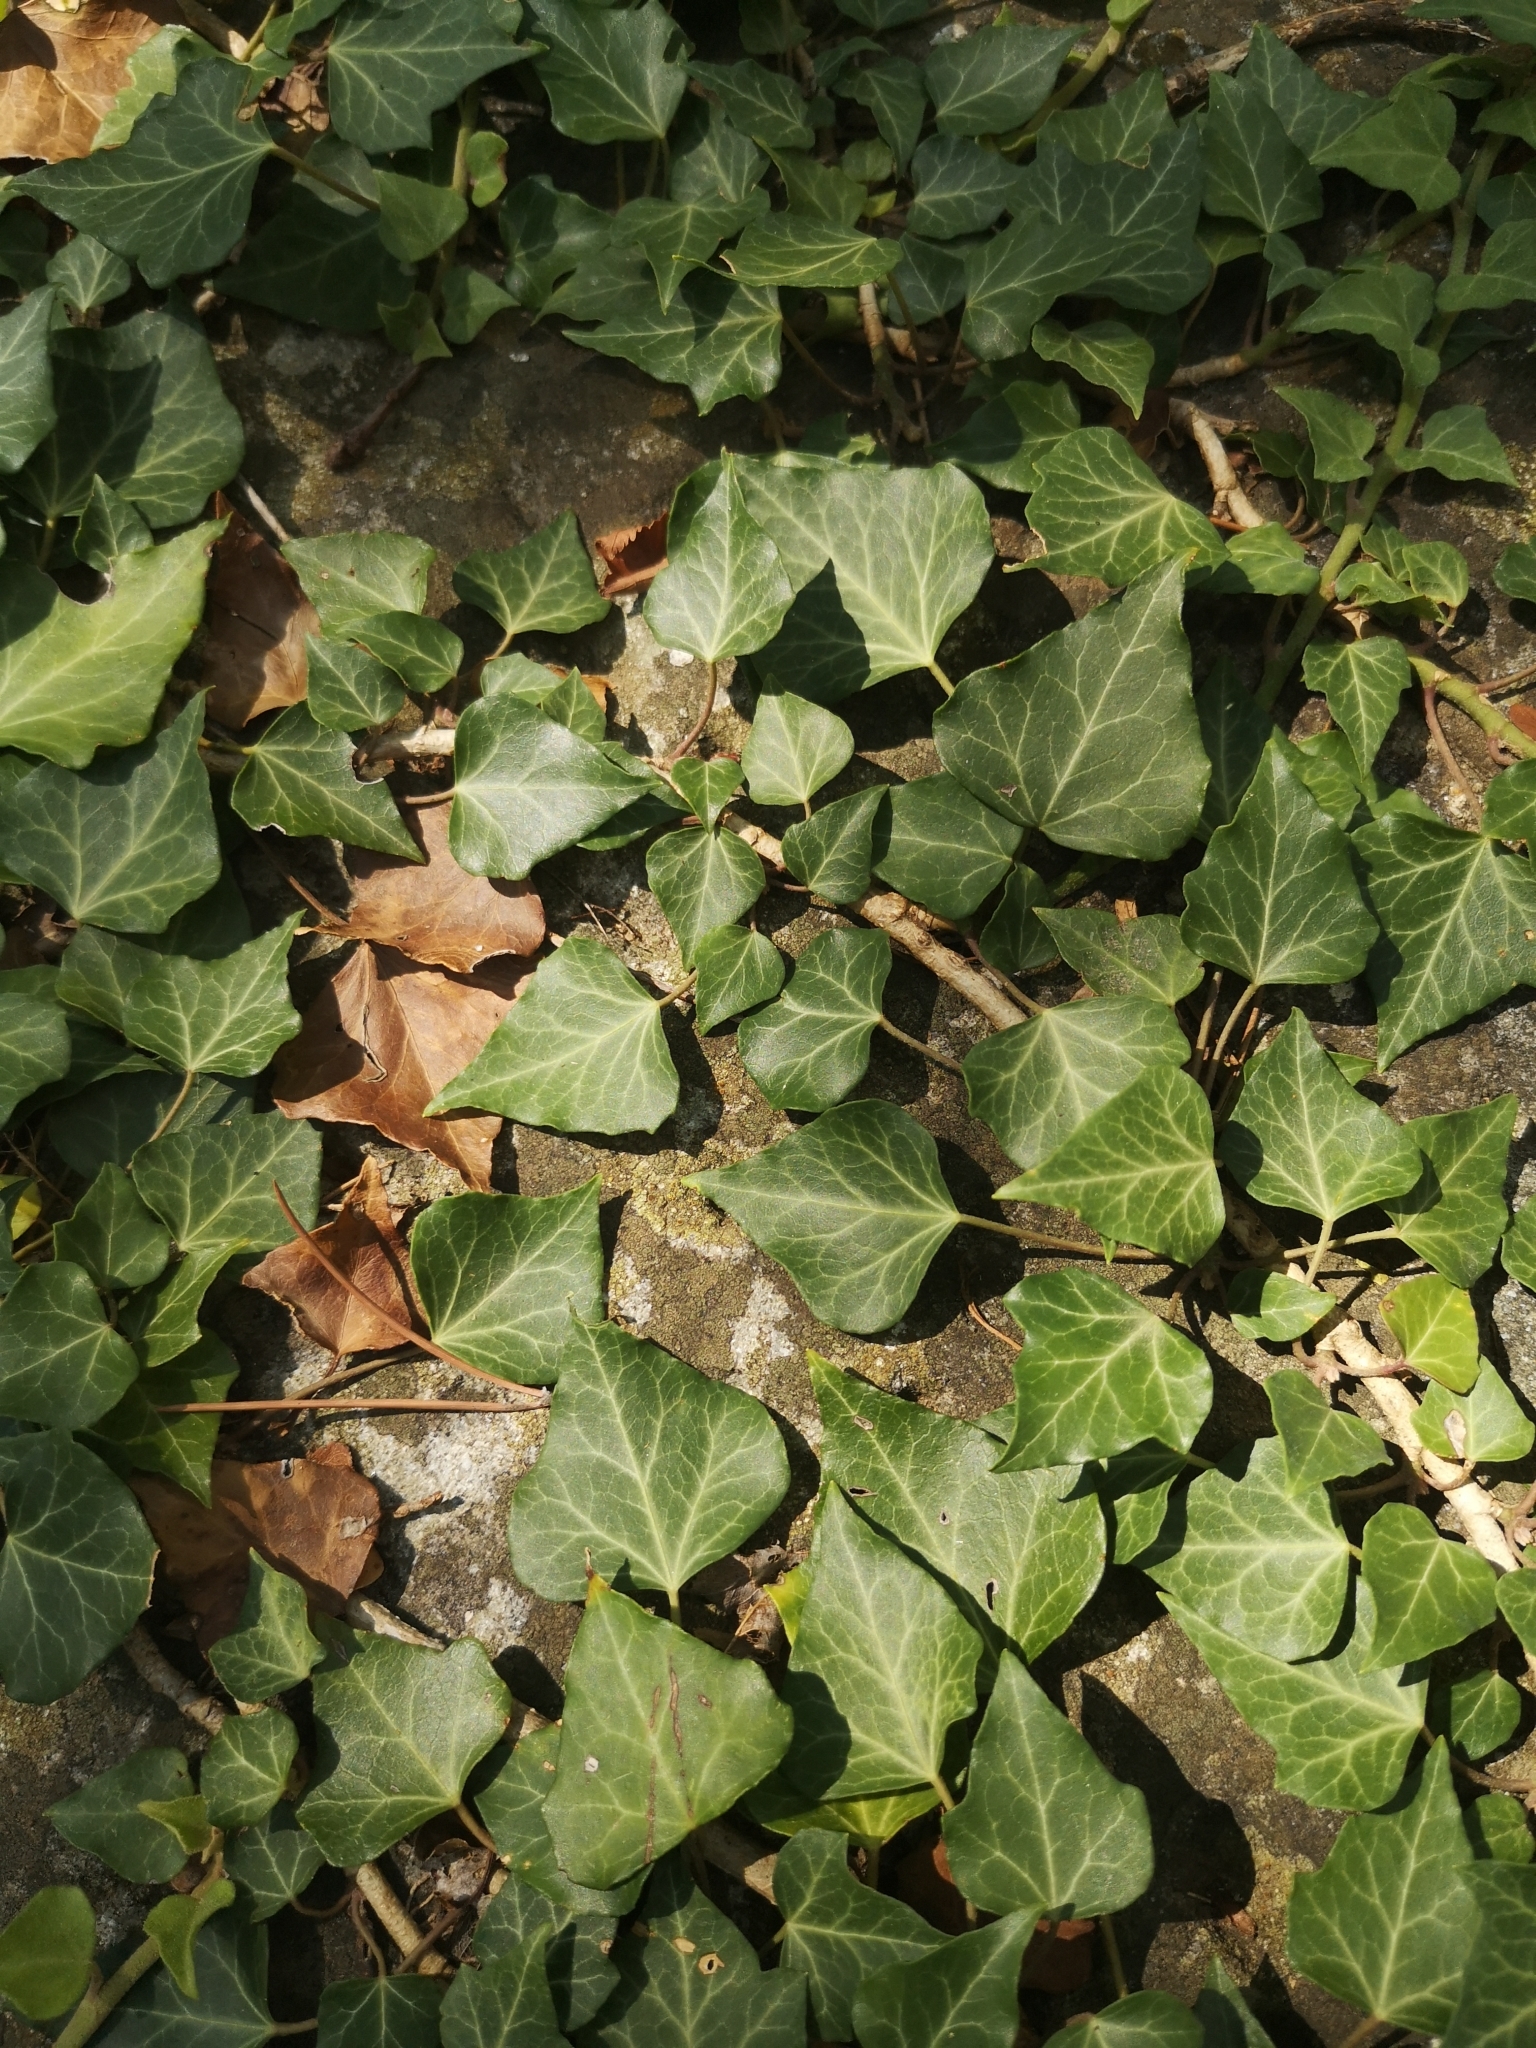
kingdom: Plantae
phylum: Tracheophyta
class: Magnoliopsida
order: Apiales
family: Araliaceae
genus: Hedera
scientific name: Hedera helix
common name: Ivy
